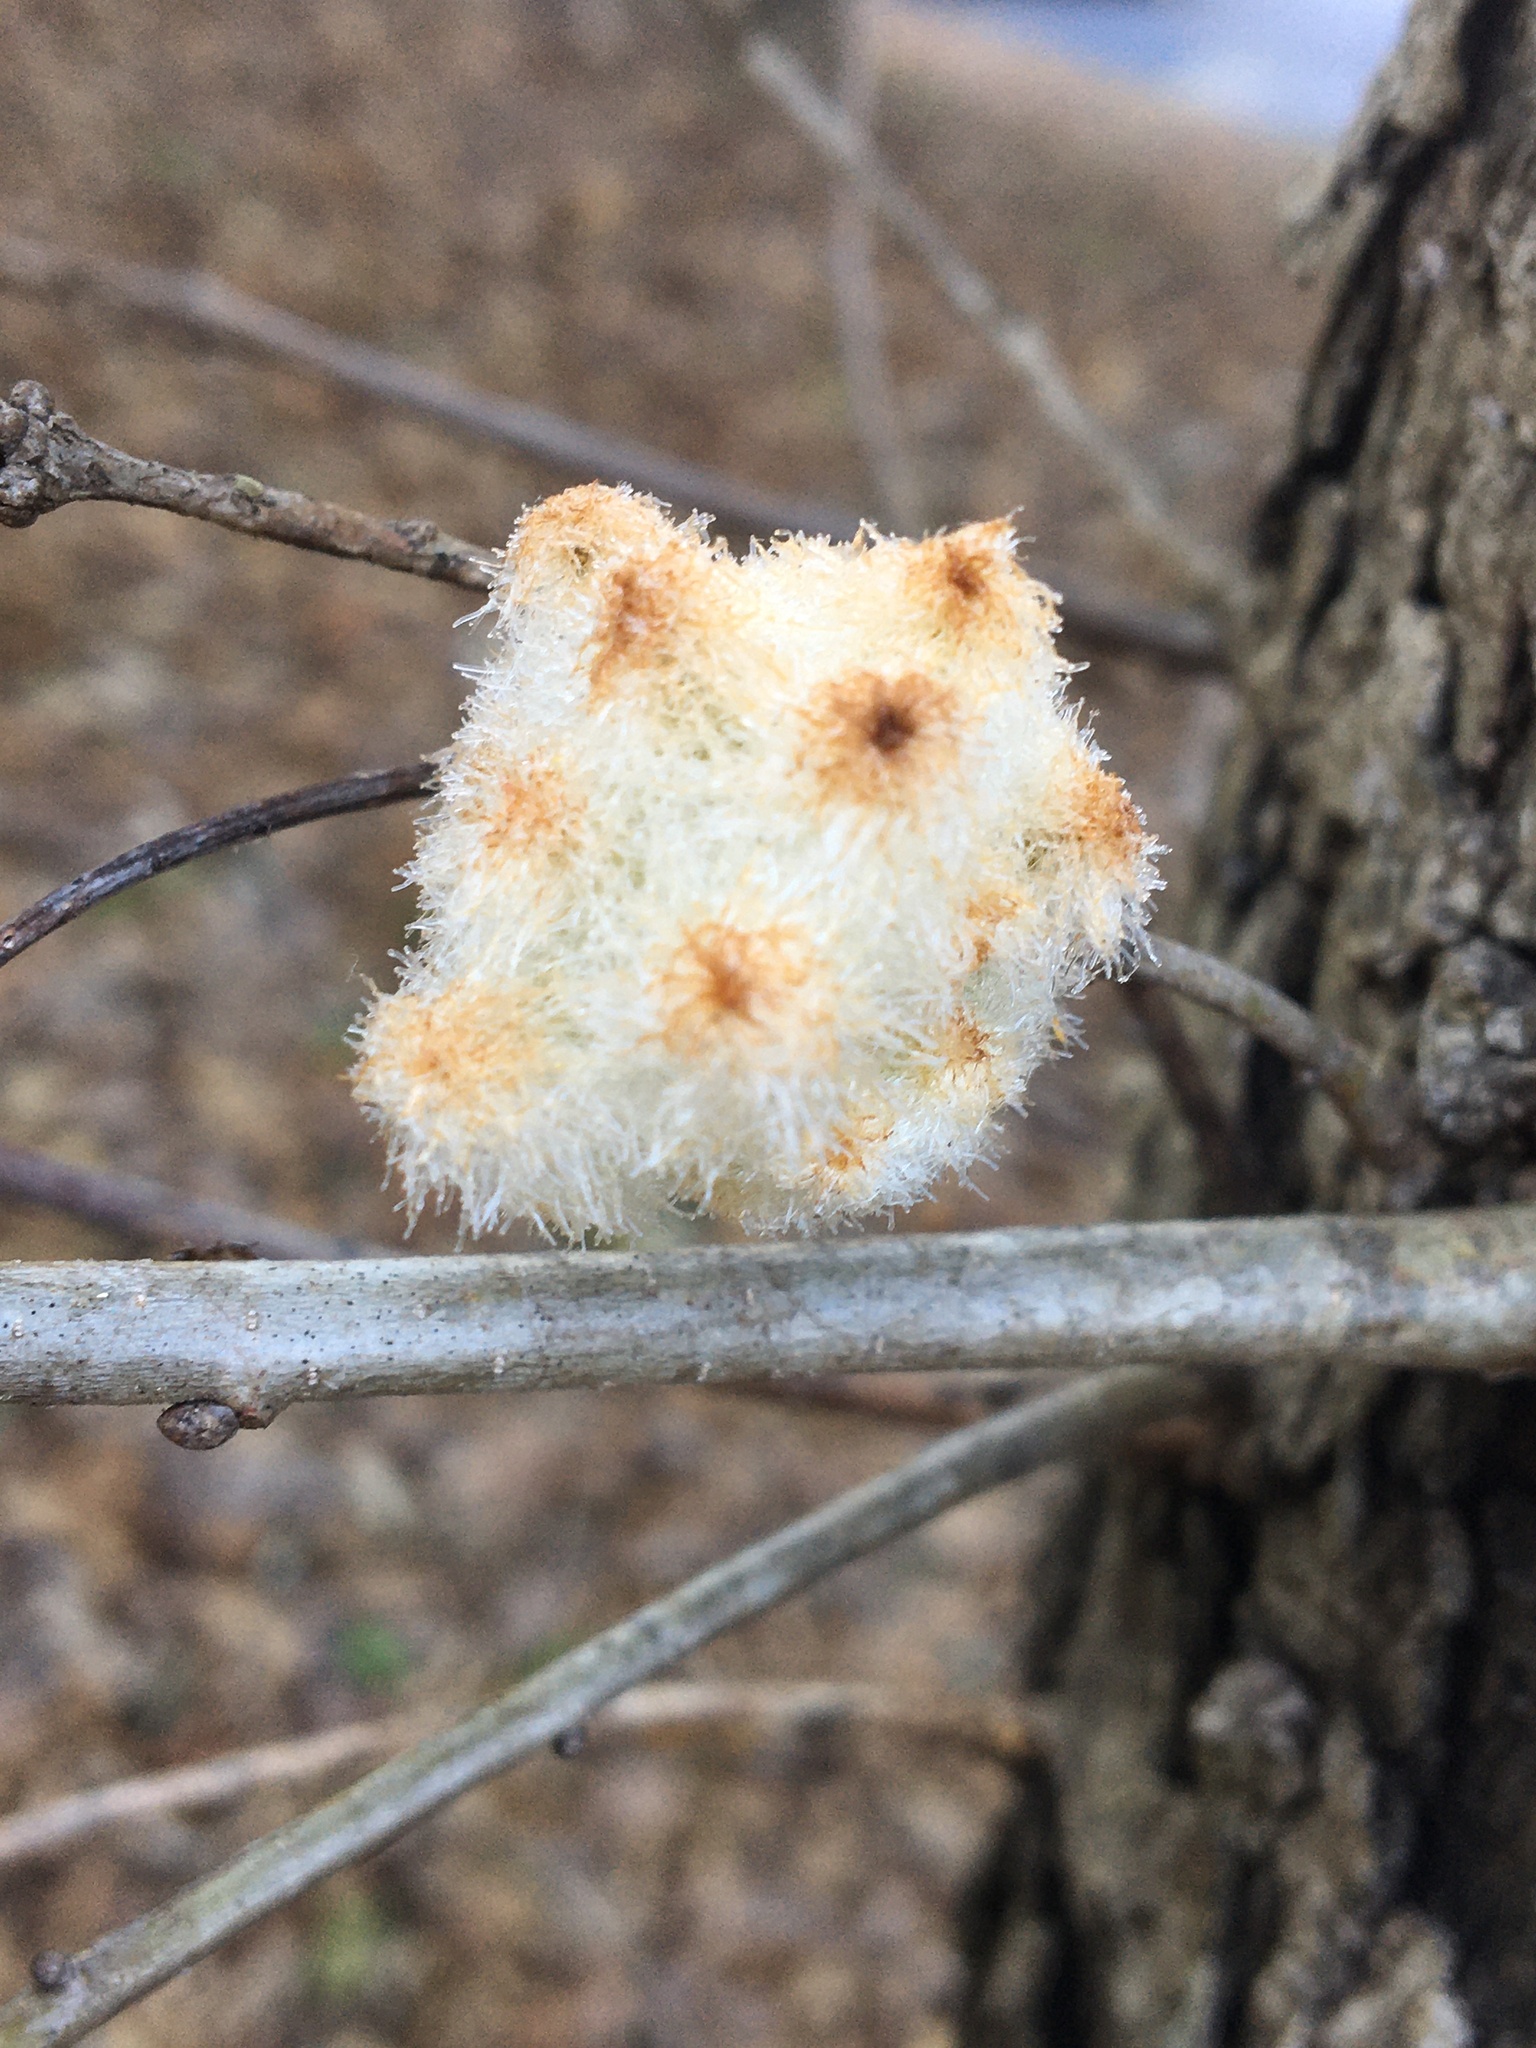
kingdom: Animalia
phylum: Arthropoda
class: Insecta
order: Hymenoptera
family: Cynipidae
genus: Callirhytis
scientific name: Callirhytis
